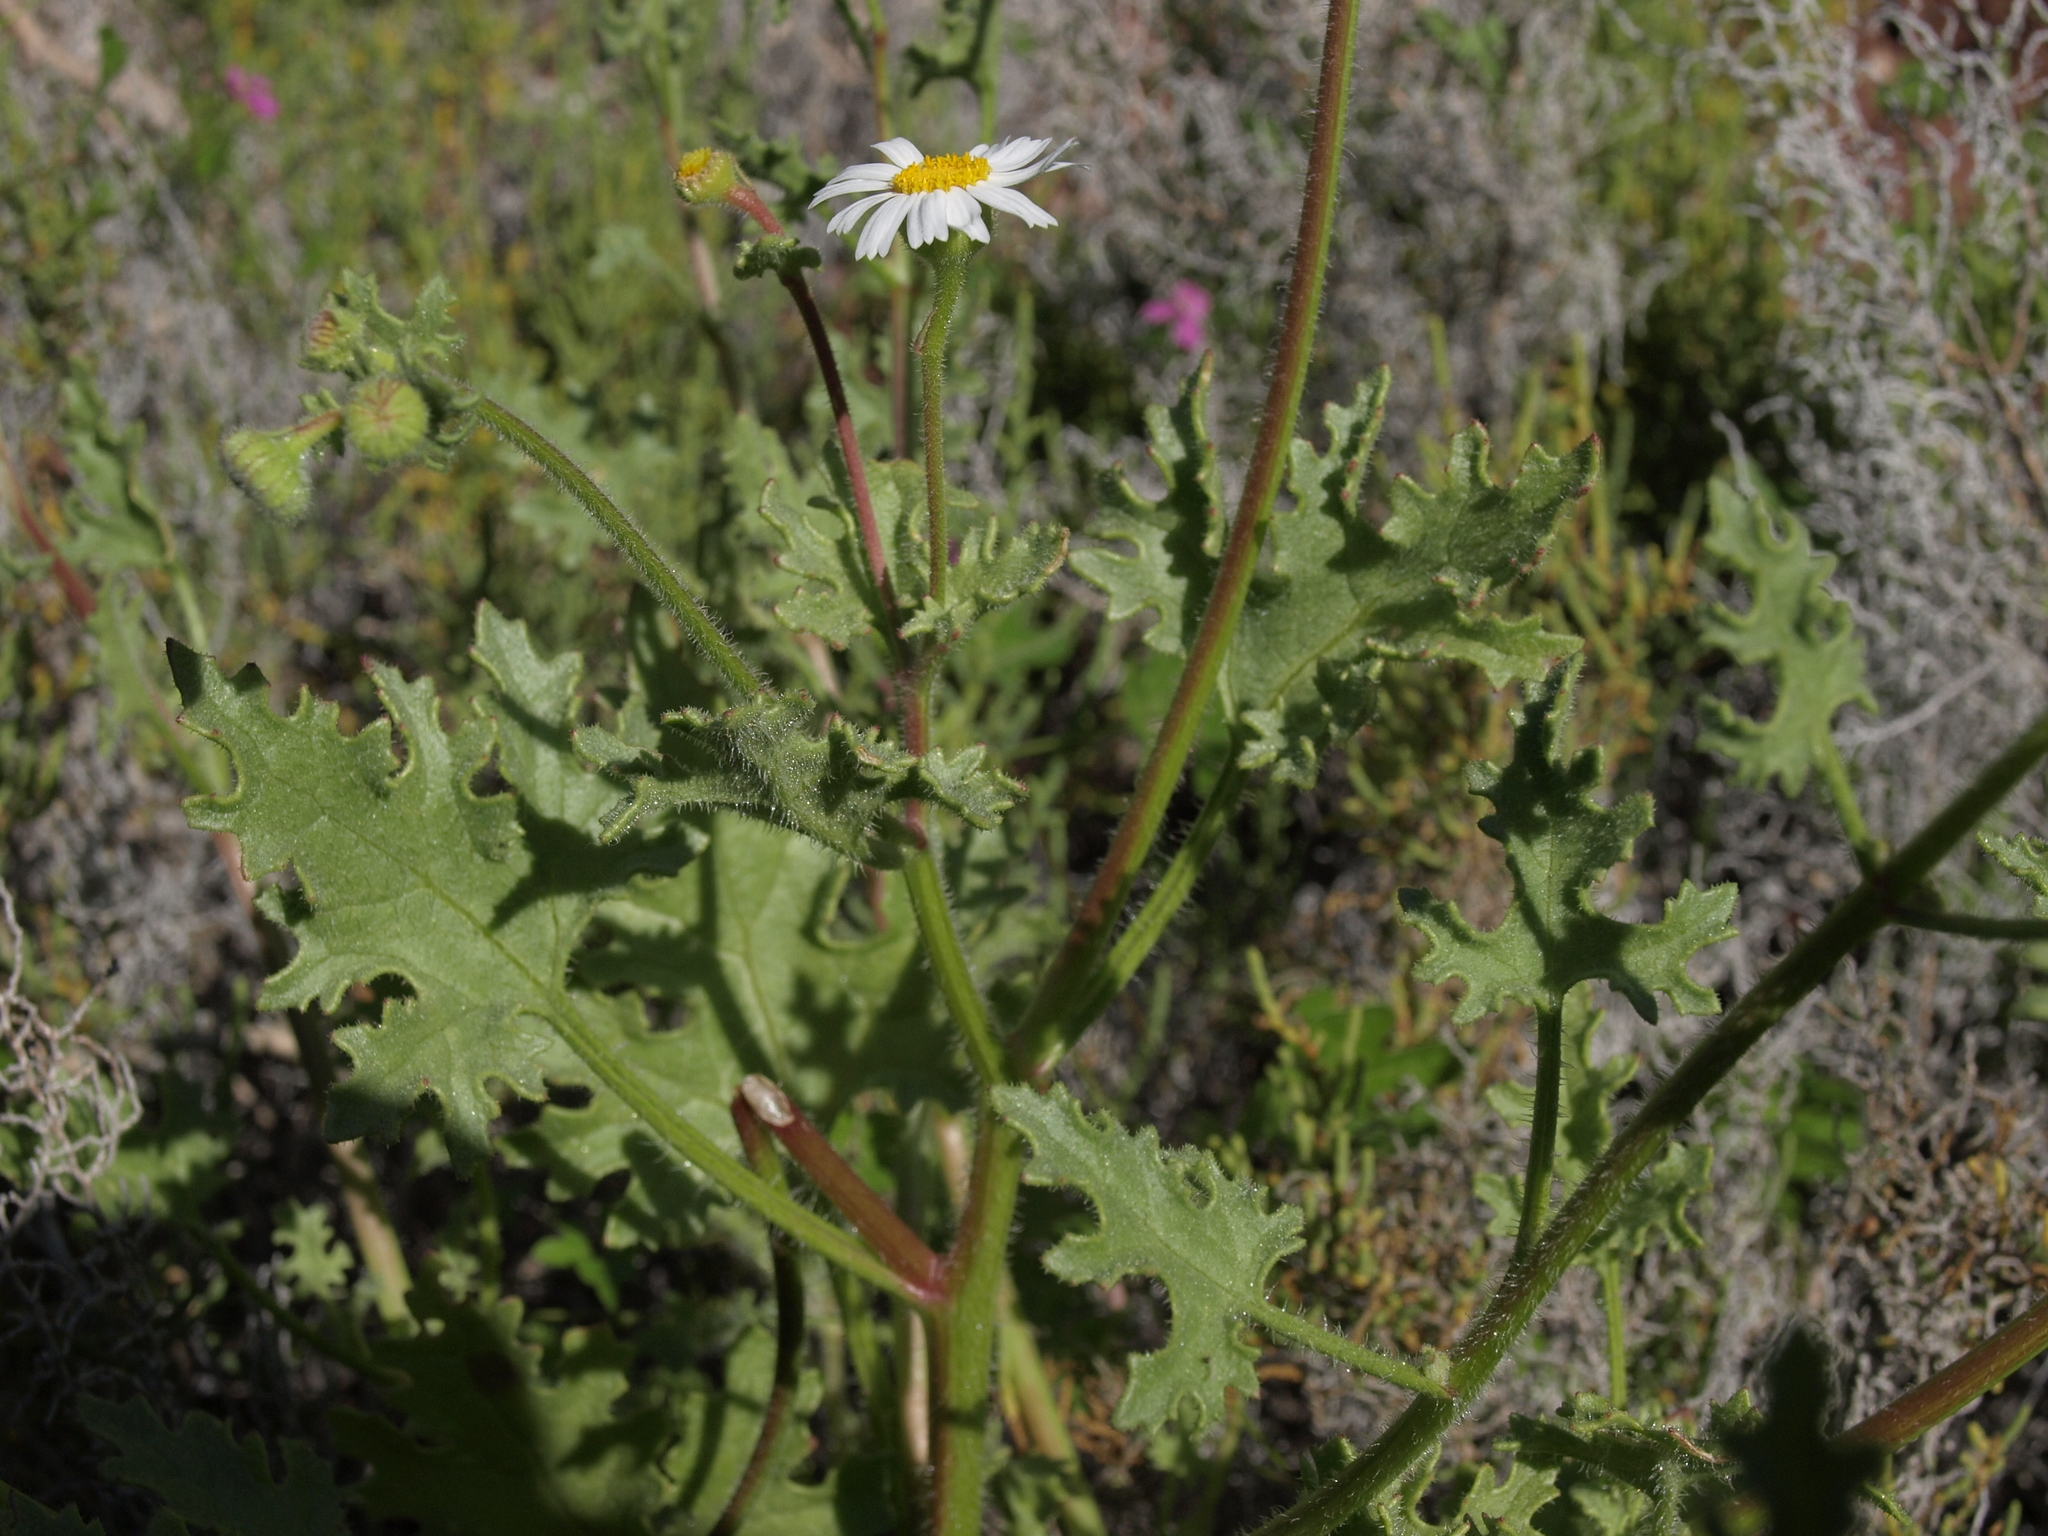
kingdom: Plantae
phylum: Tracheophyta
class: Magnoliopsida
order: Asterales
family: Asteraceae
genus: Perityle
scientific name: Perityle crassifolia
